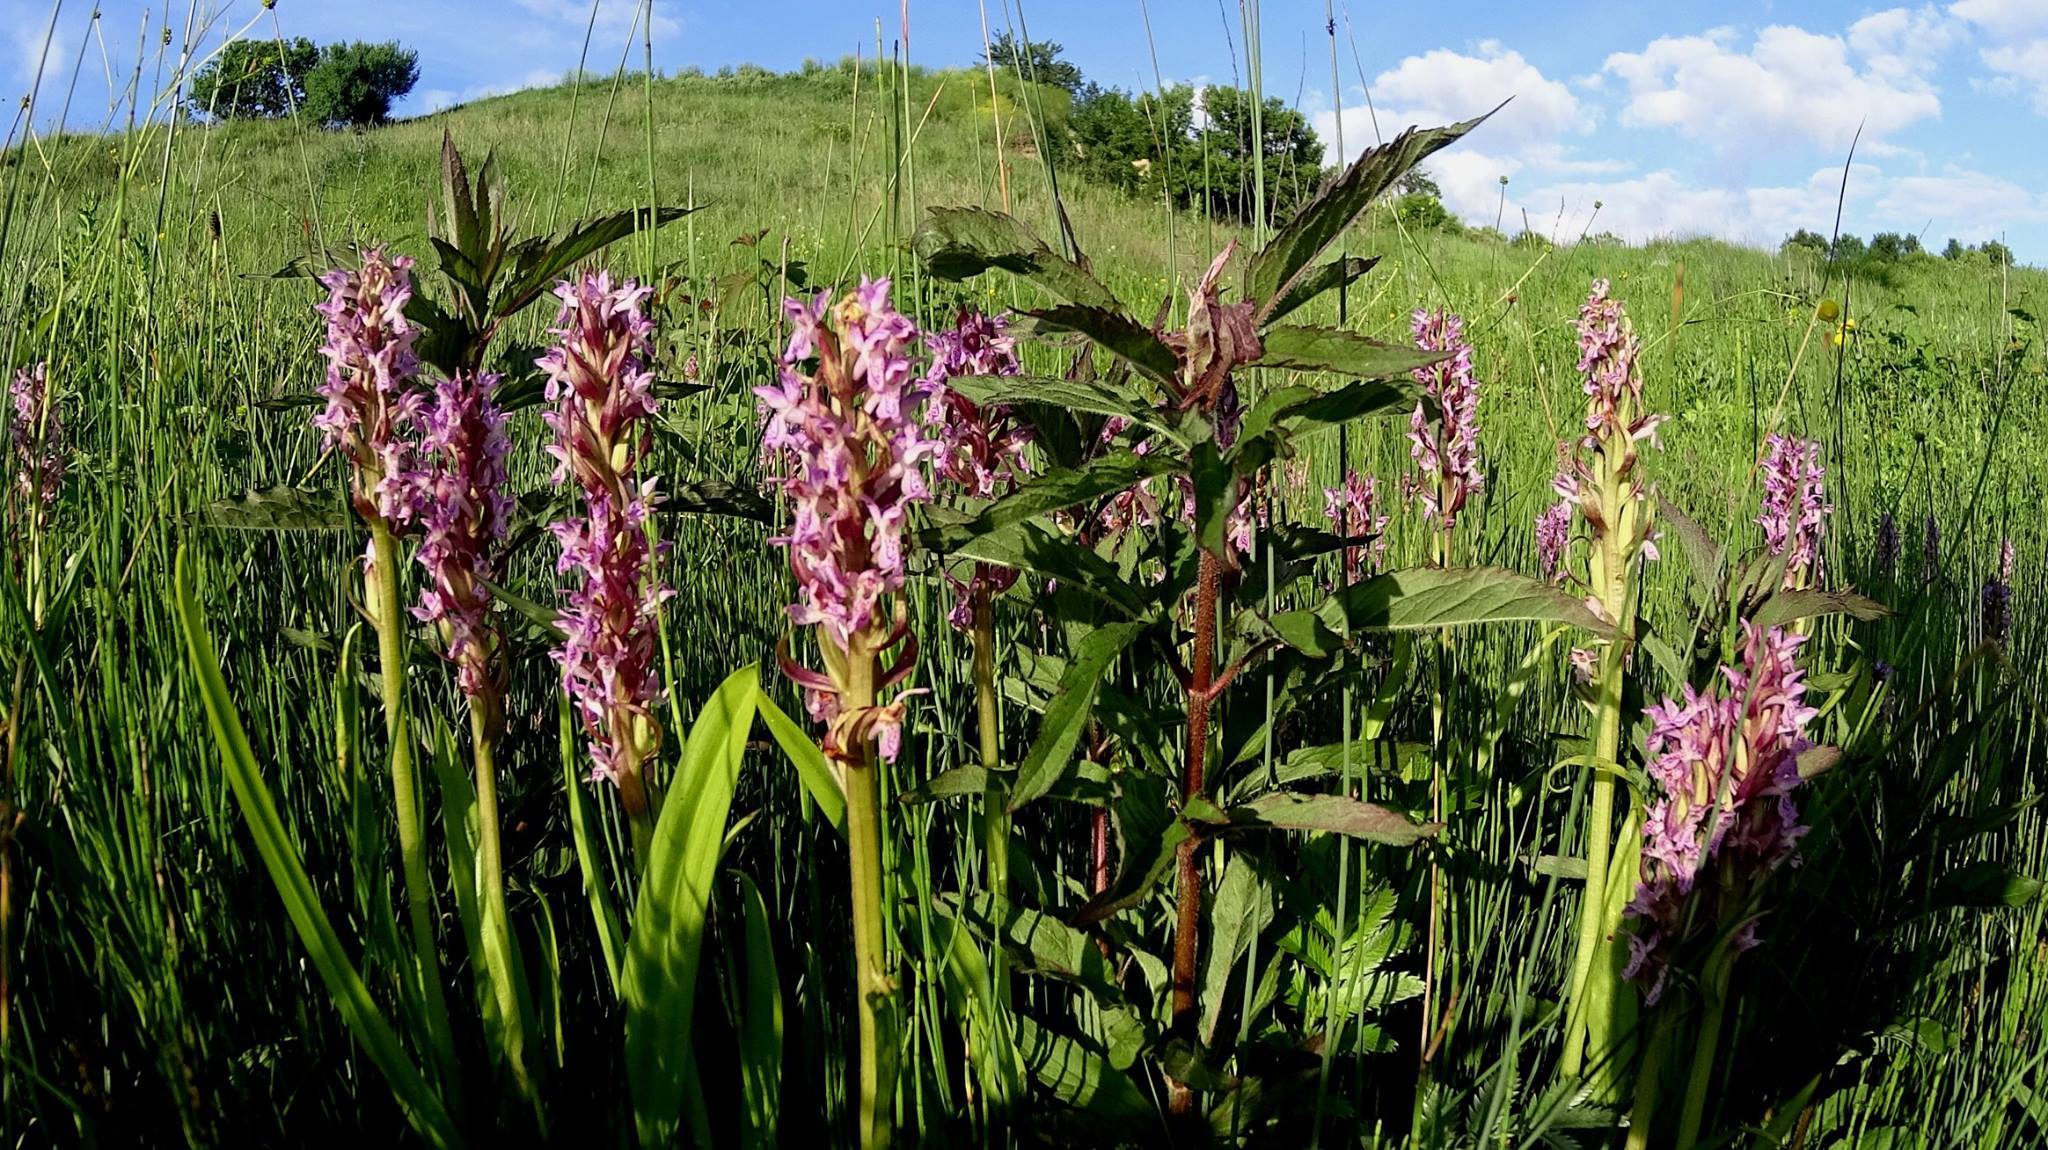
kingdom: Plantae
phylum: Tracheophyta
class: Liliopsida
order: Asparagales
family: Orchidaceae
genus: Dactylorhiza
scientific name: Dactylorhiza incarnata
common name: Early marsh-orchid
